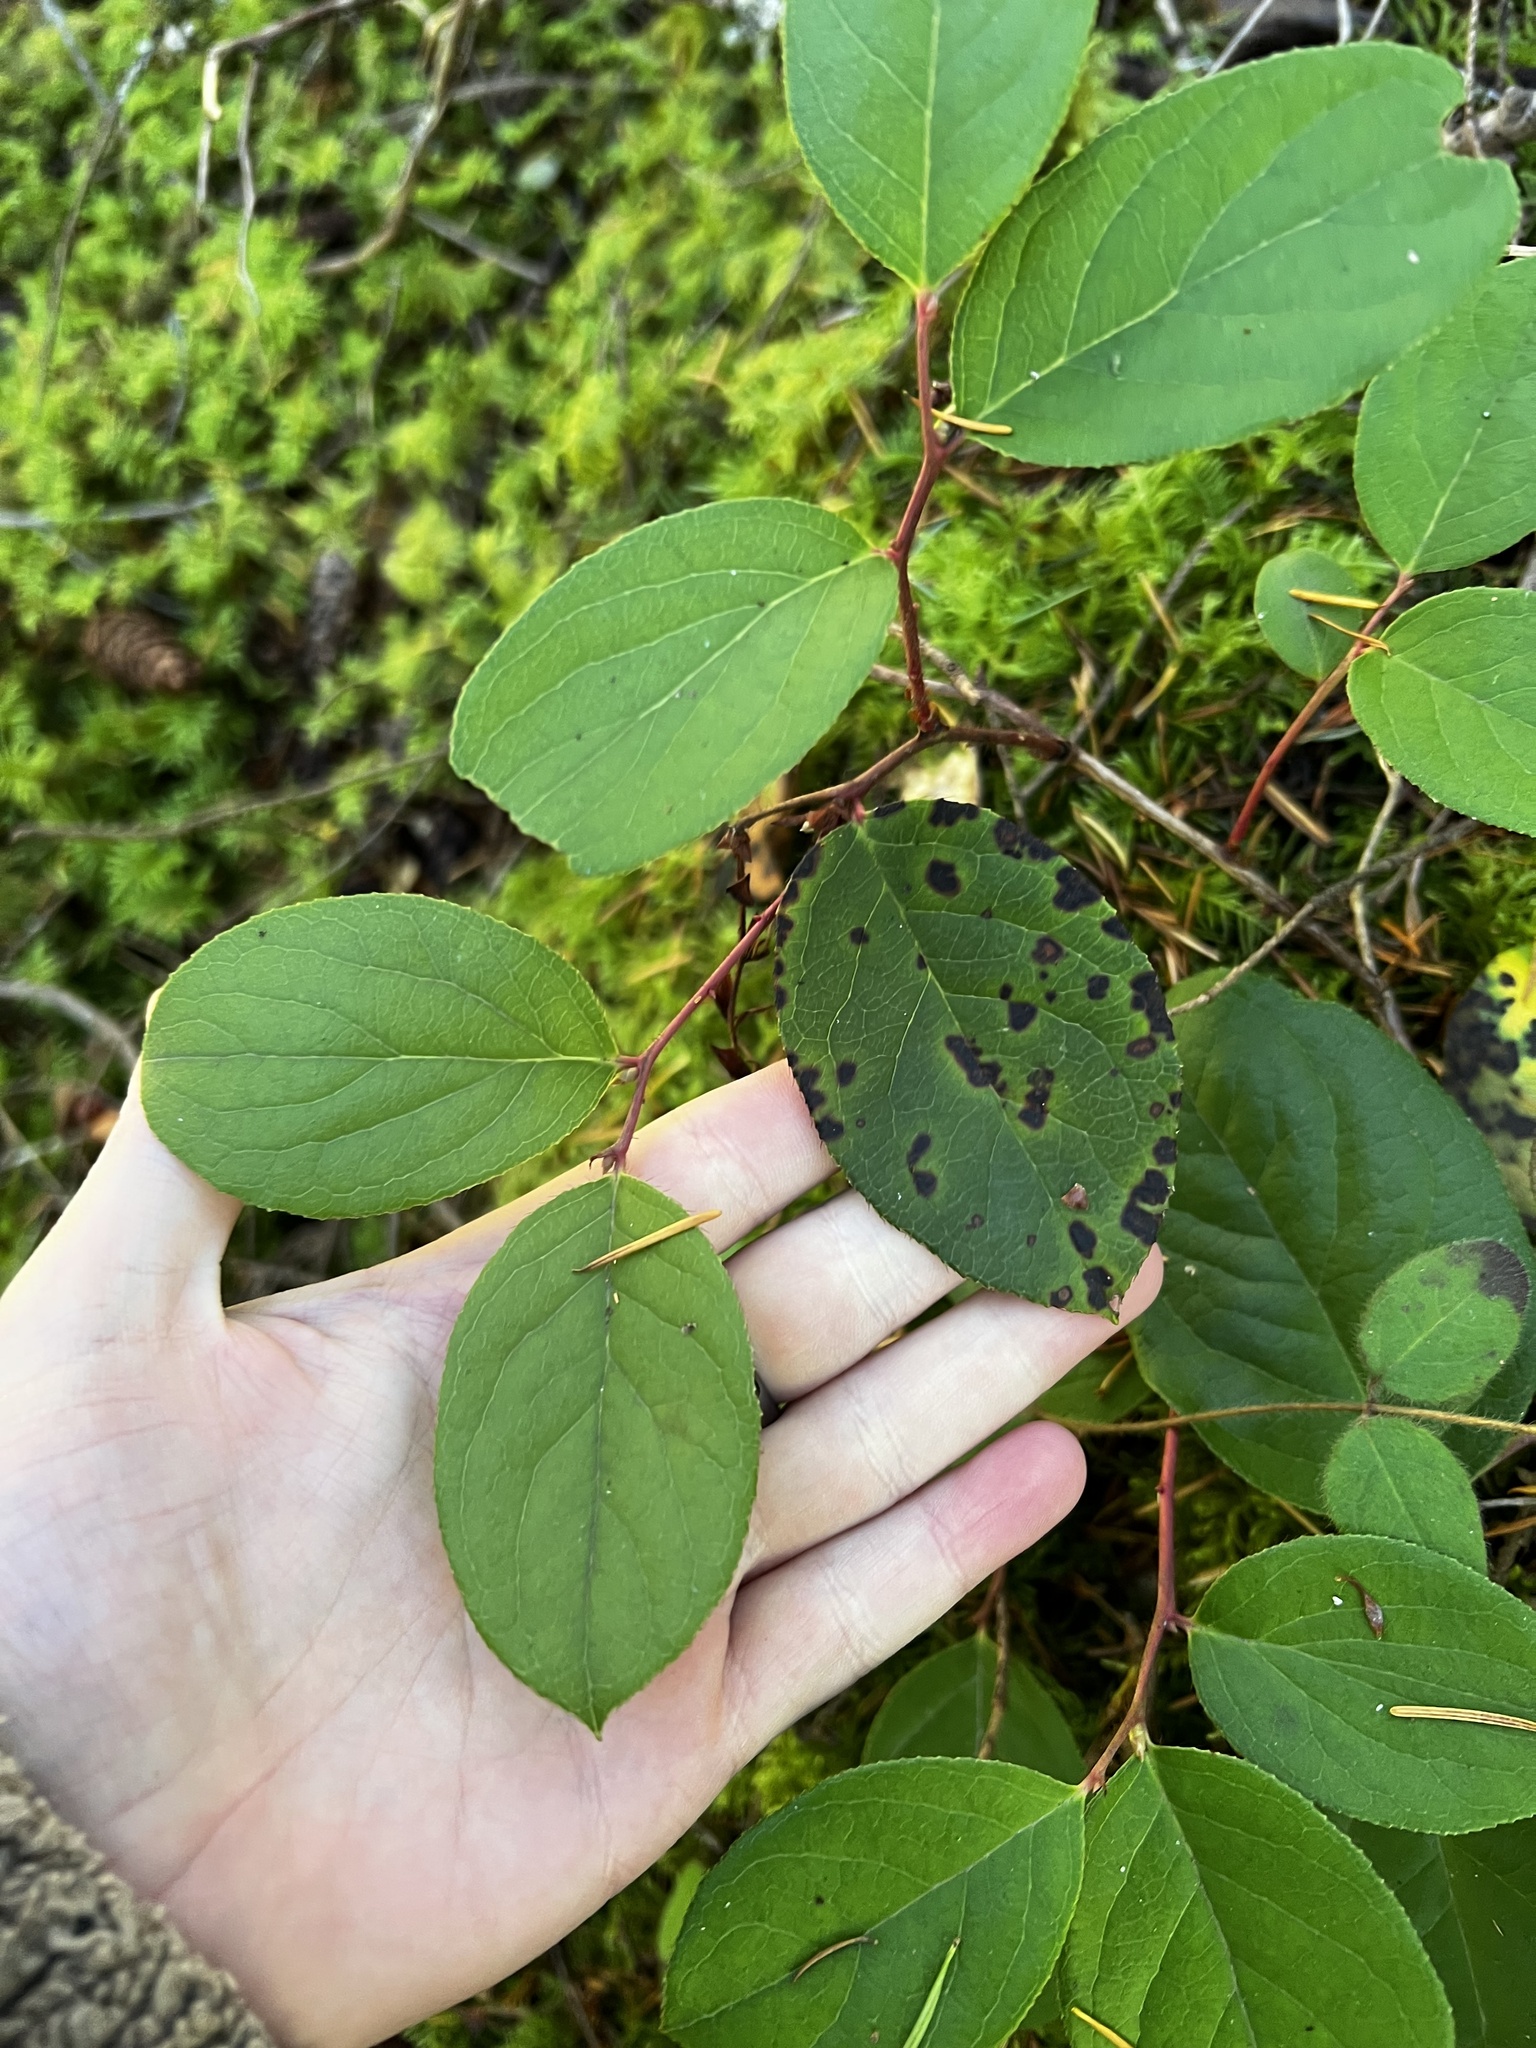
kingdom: Plantae
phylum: Tracheophyta
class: Magnoliopsida
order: Ericales
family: Ericaceae
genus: Gaultheria
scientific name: Gaultheria shallon
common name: Shallon
